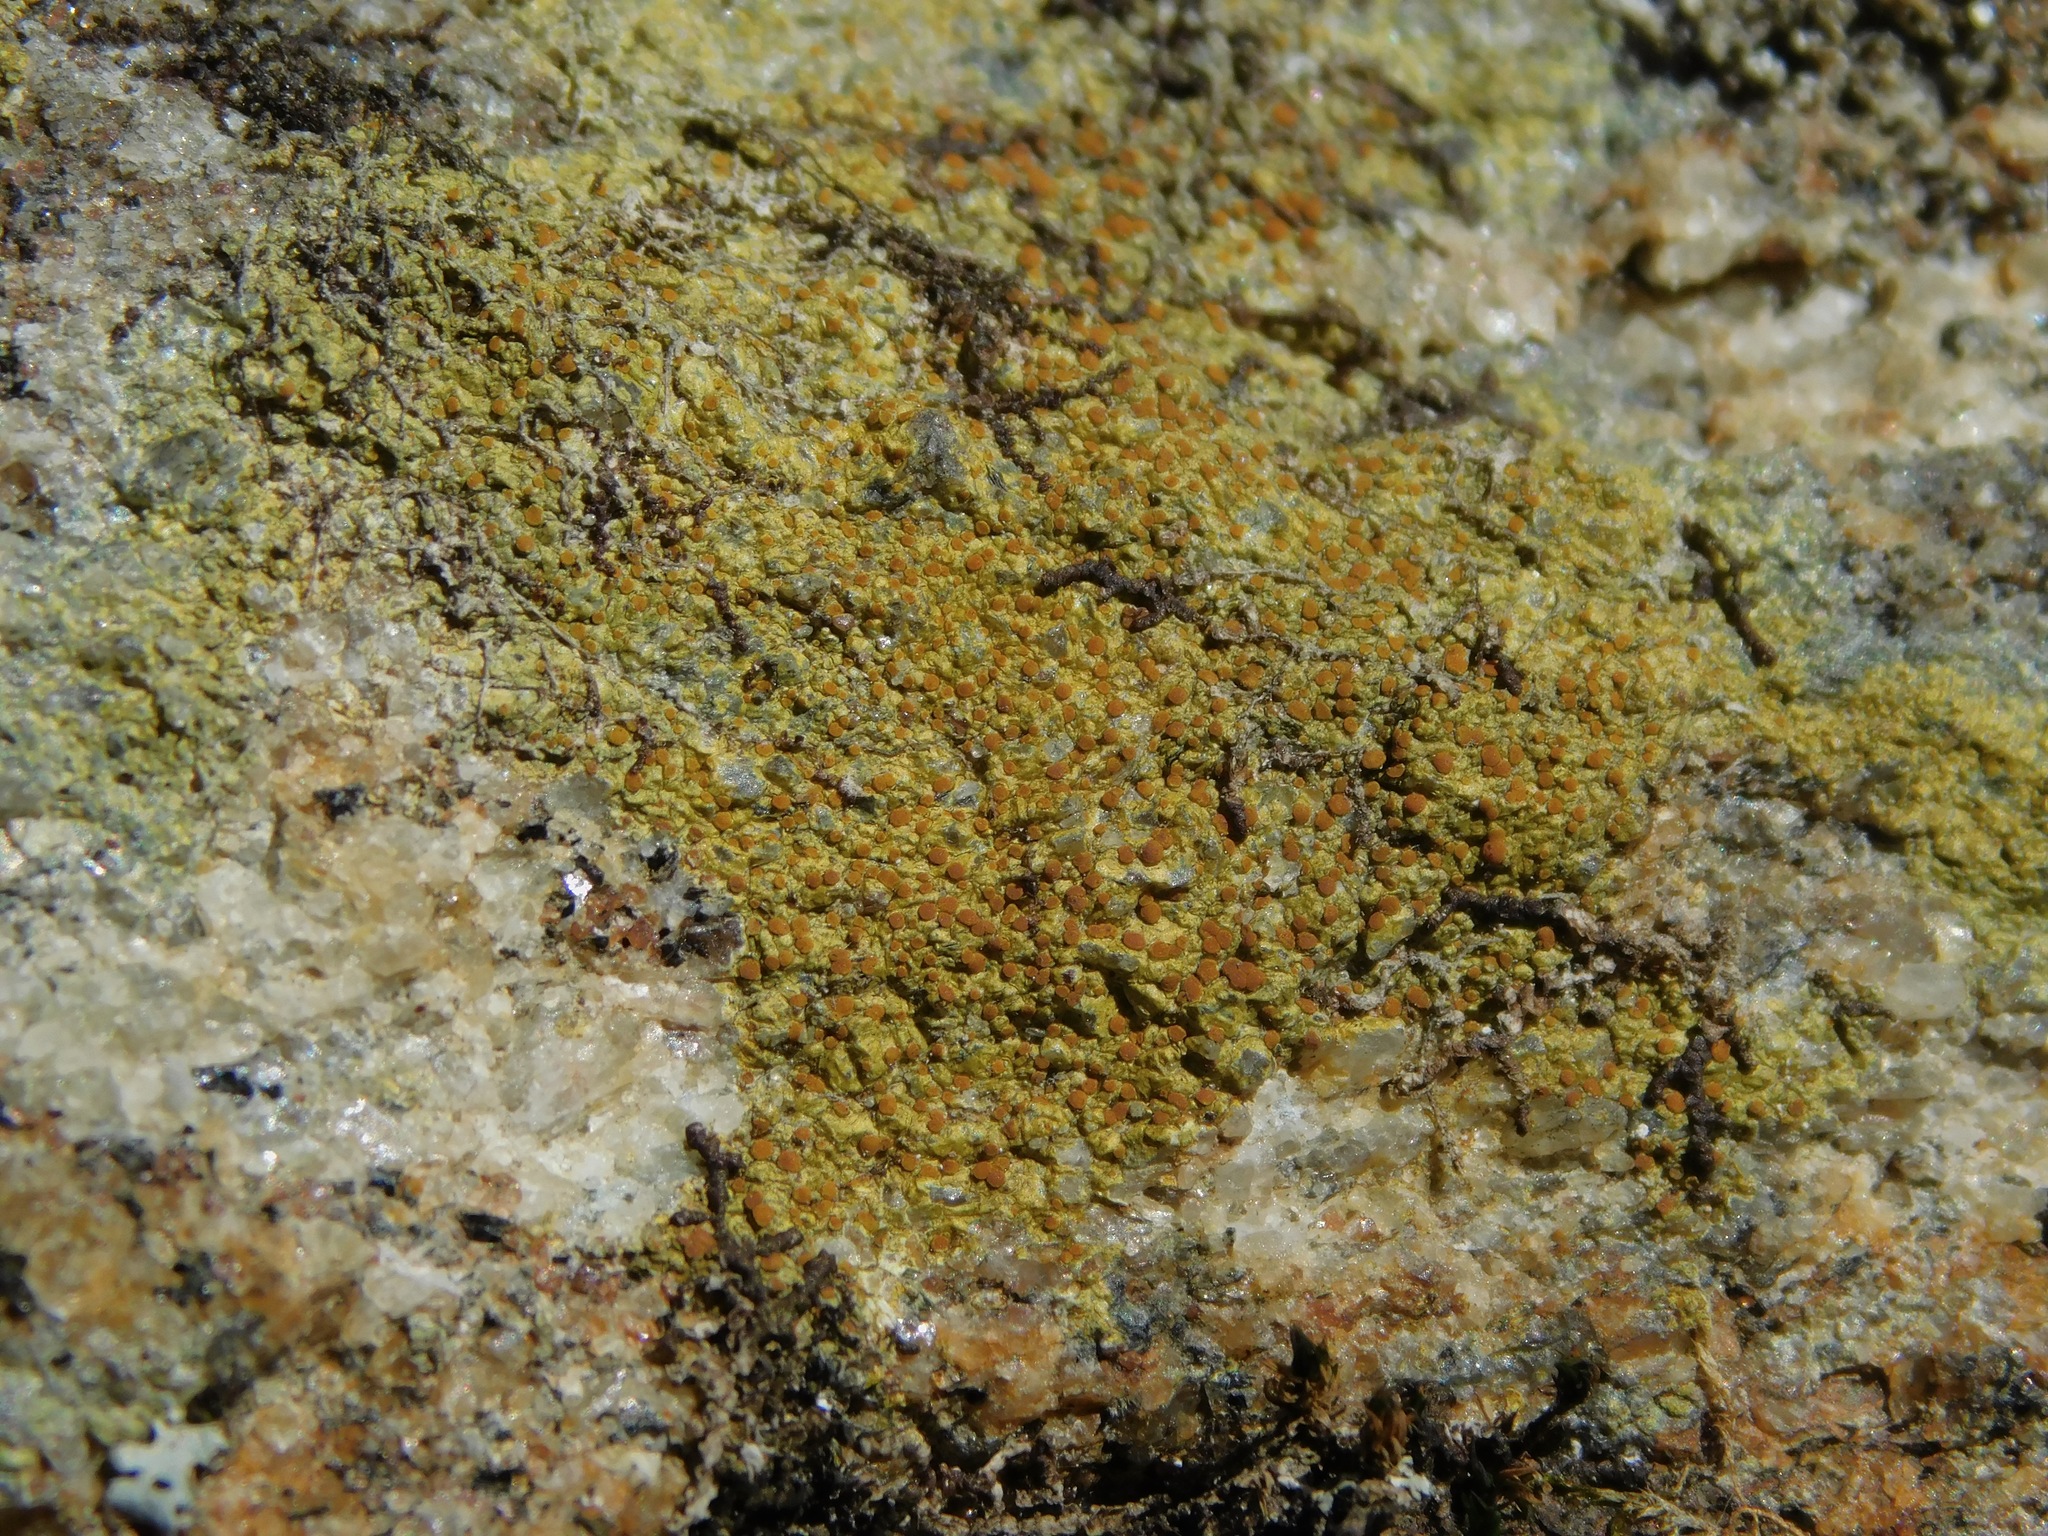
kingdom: Fungi
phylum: Ascomycota
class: Lecanoromycetes
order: Teloschistales
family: Teloschistaceae
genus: Gyalolechia
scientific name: Gyalolechia flavovirescens
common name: Sulphur firedot
